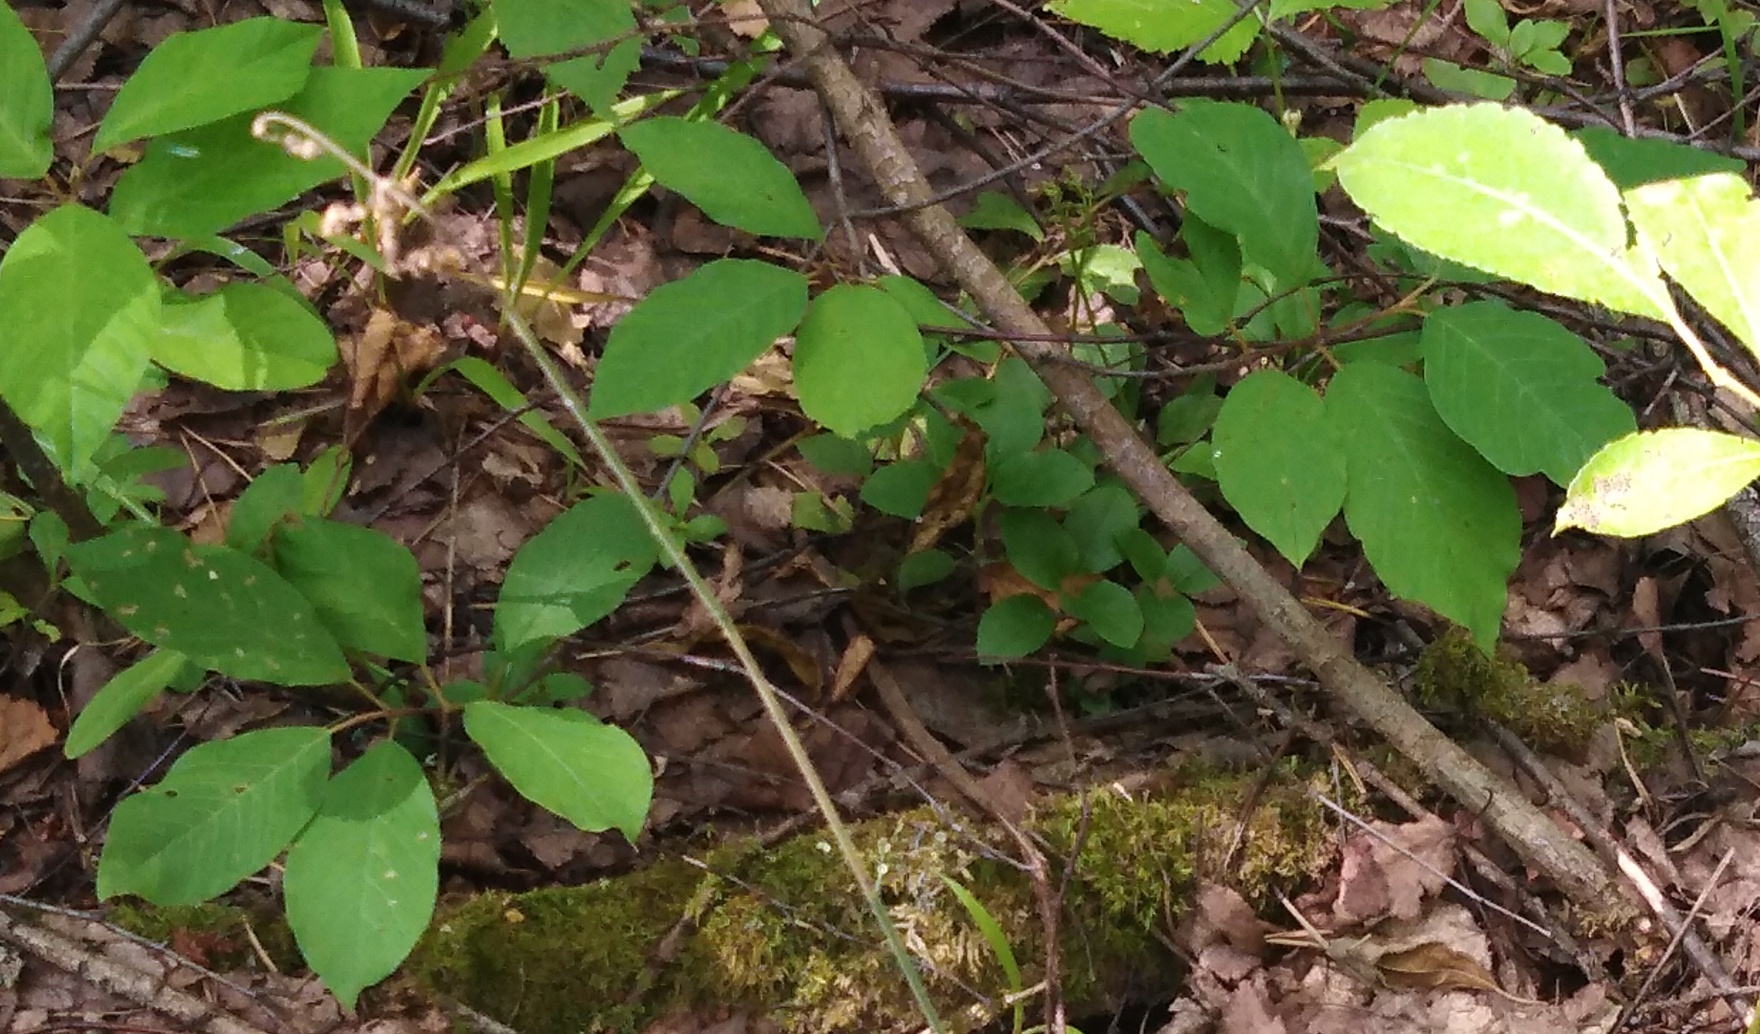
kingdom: Plantae
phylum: Tracheophyta
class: Magnoliopsida
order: Rosales
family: Rhamnaceae
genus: Frangula
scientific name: Frangula alnus
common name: Alder buckthorn
